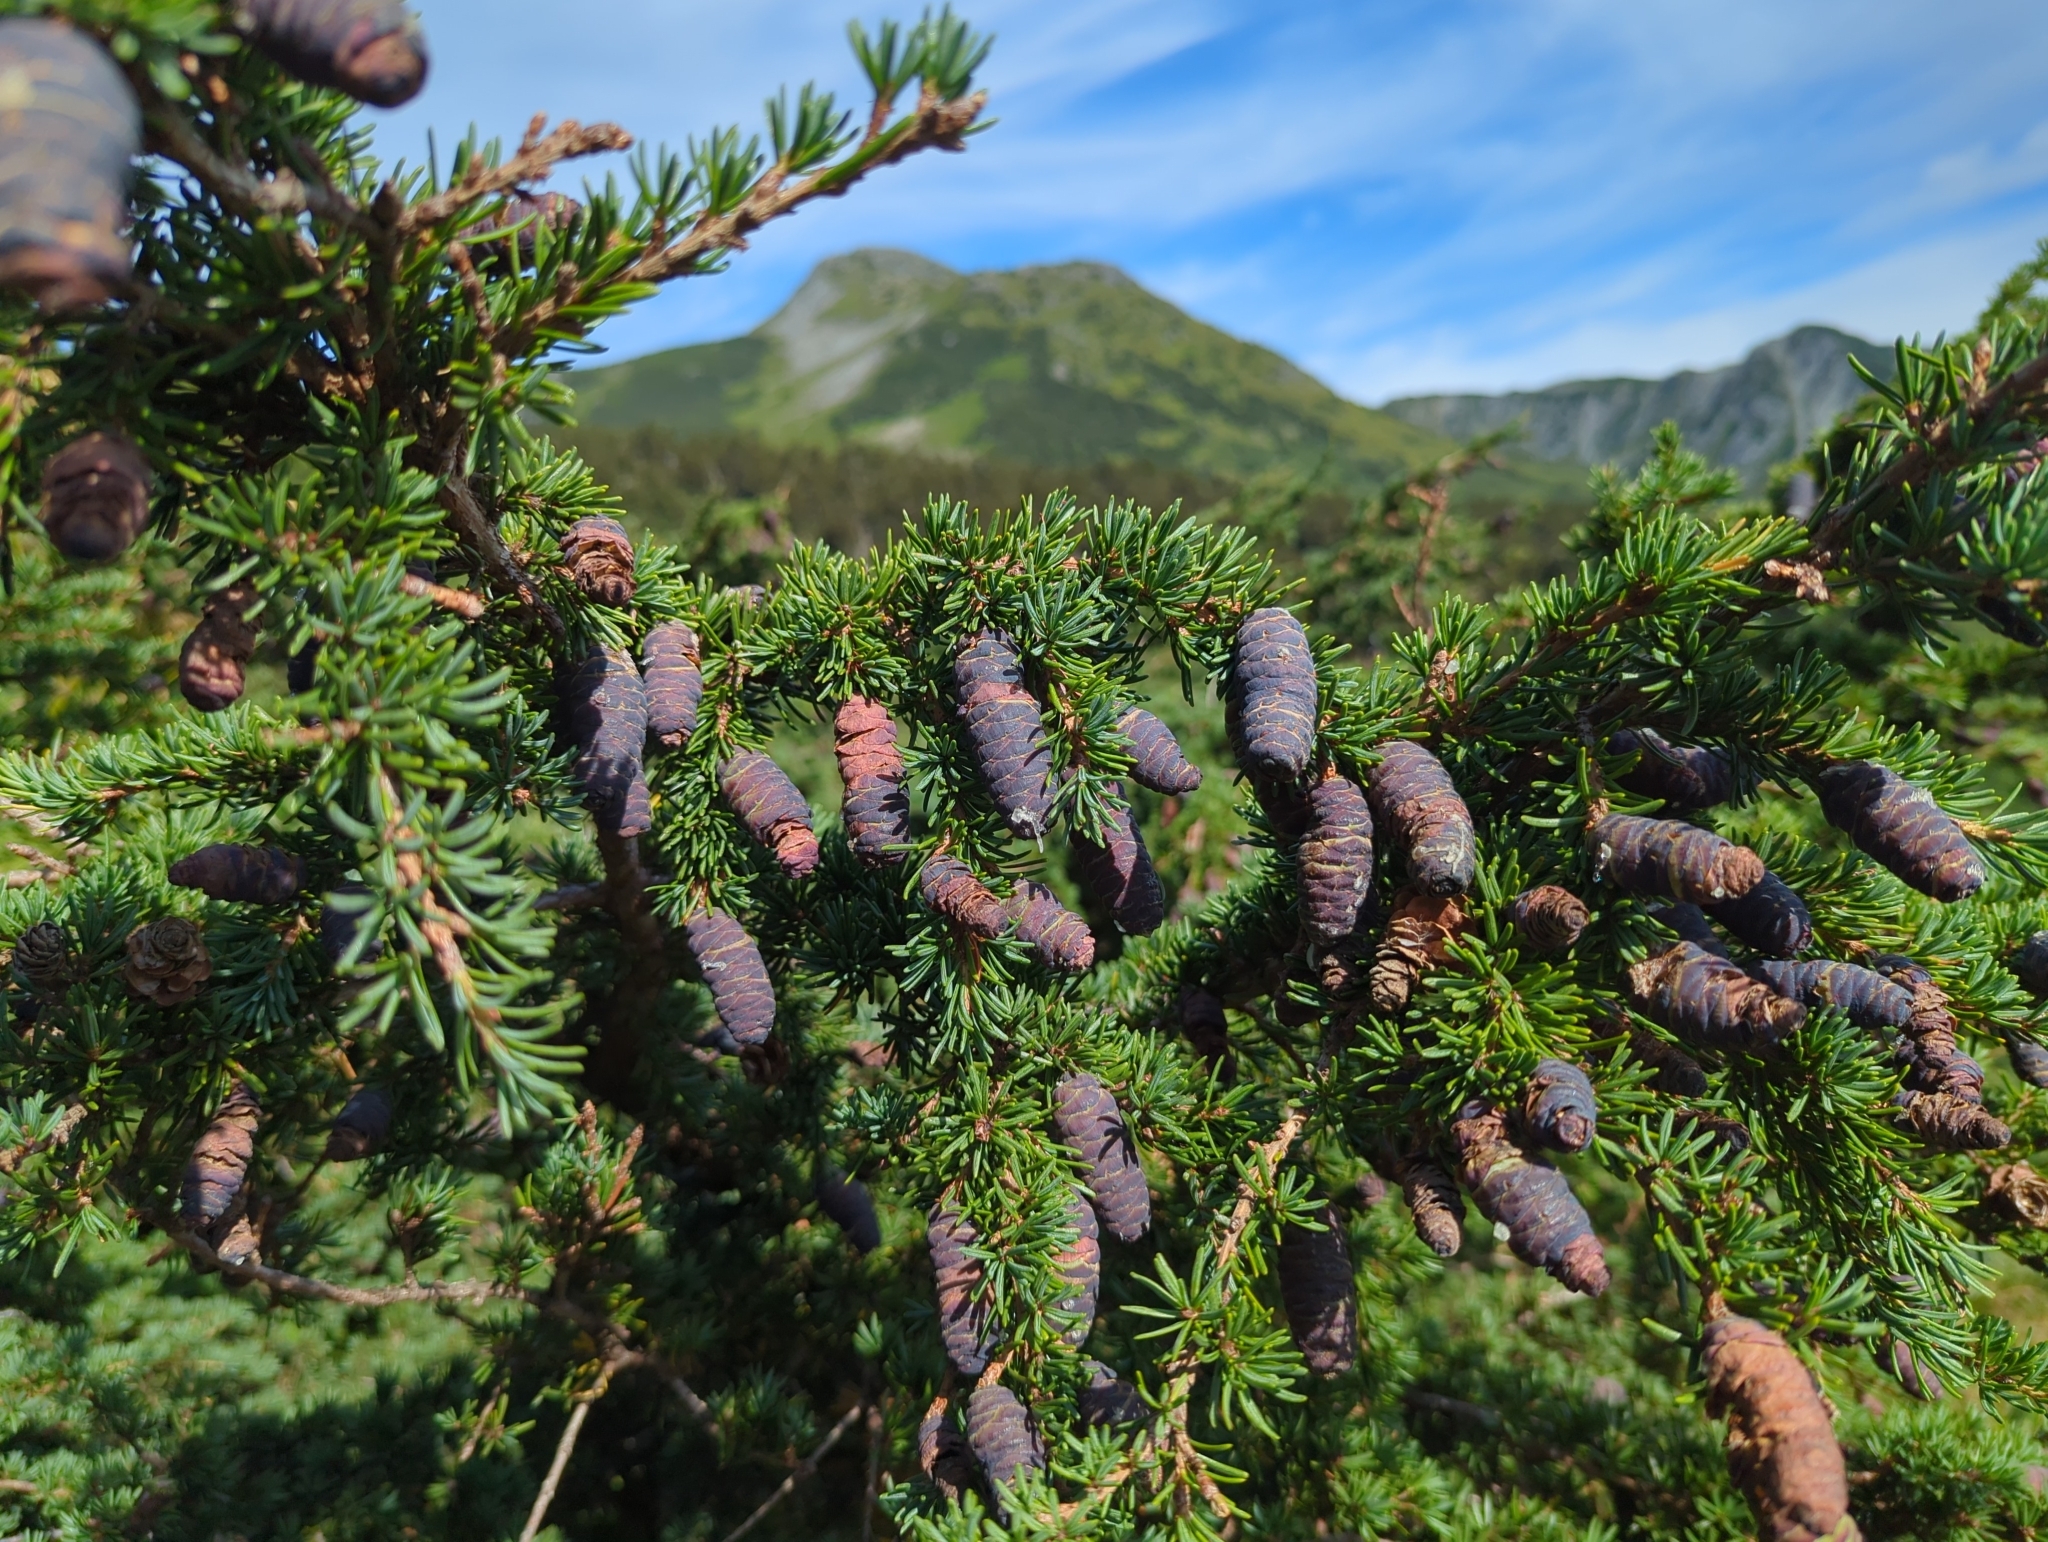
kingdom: Plantae
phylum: Tracheophyta
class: Pinopsida
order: Pinales
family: Pinaceae
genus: Tsuga
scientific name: Tsuga mertensiana
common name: Mountain hemlock
